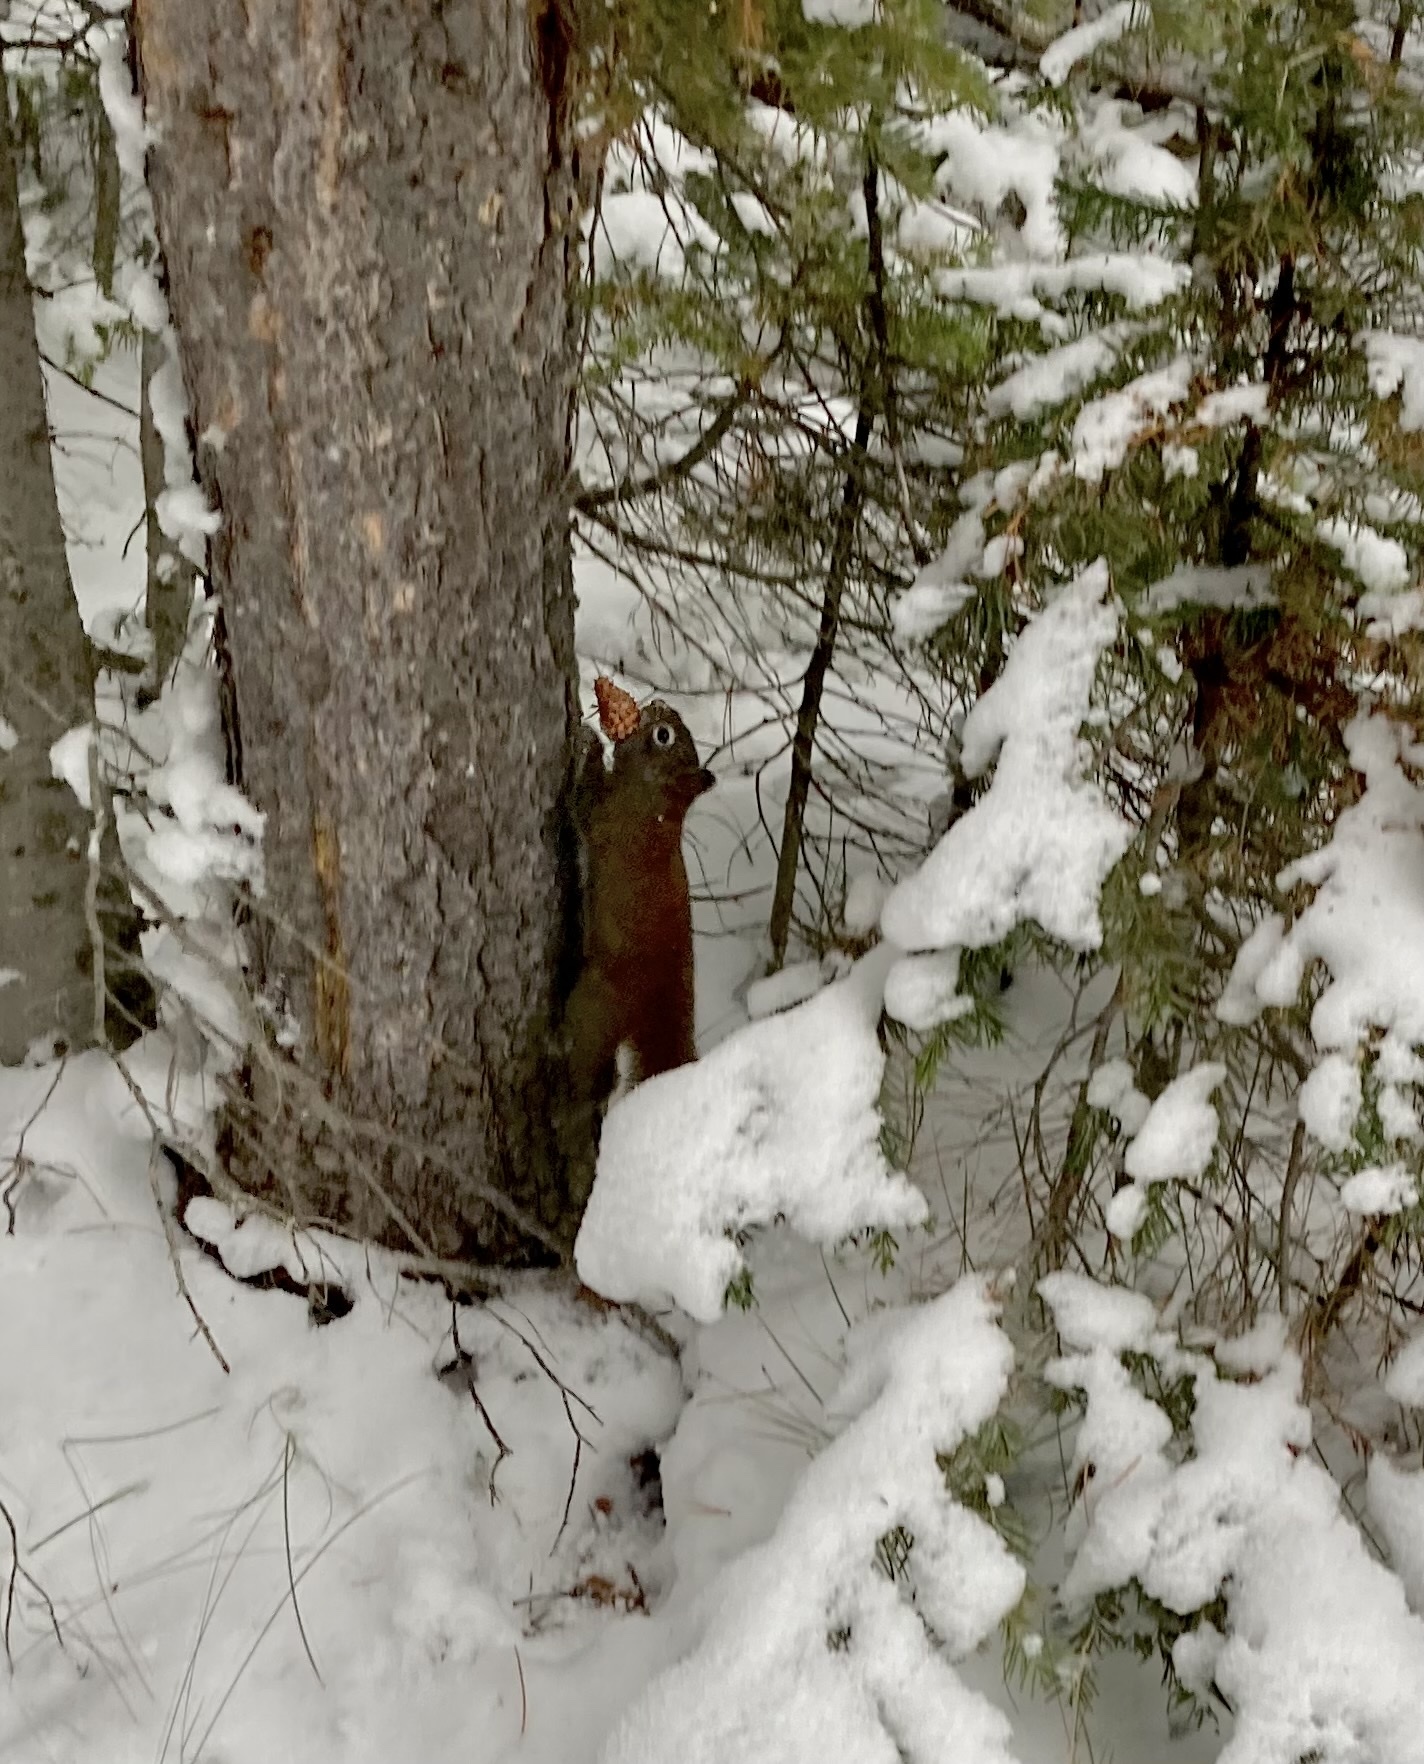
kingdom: Animalia
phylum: Chordata
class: Mammalia
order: Rodentia
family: Sciuridae
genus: Tamiasciurus
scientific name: Tamiasciurus hudsonicus
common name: Red squirrel
